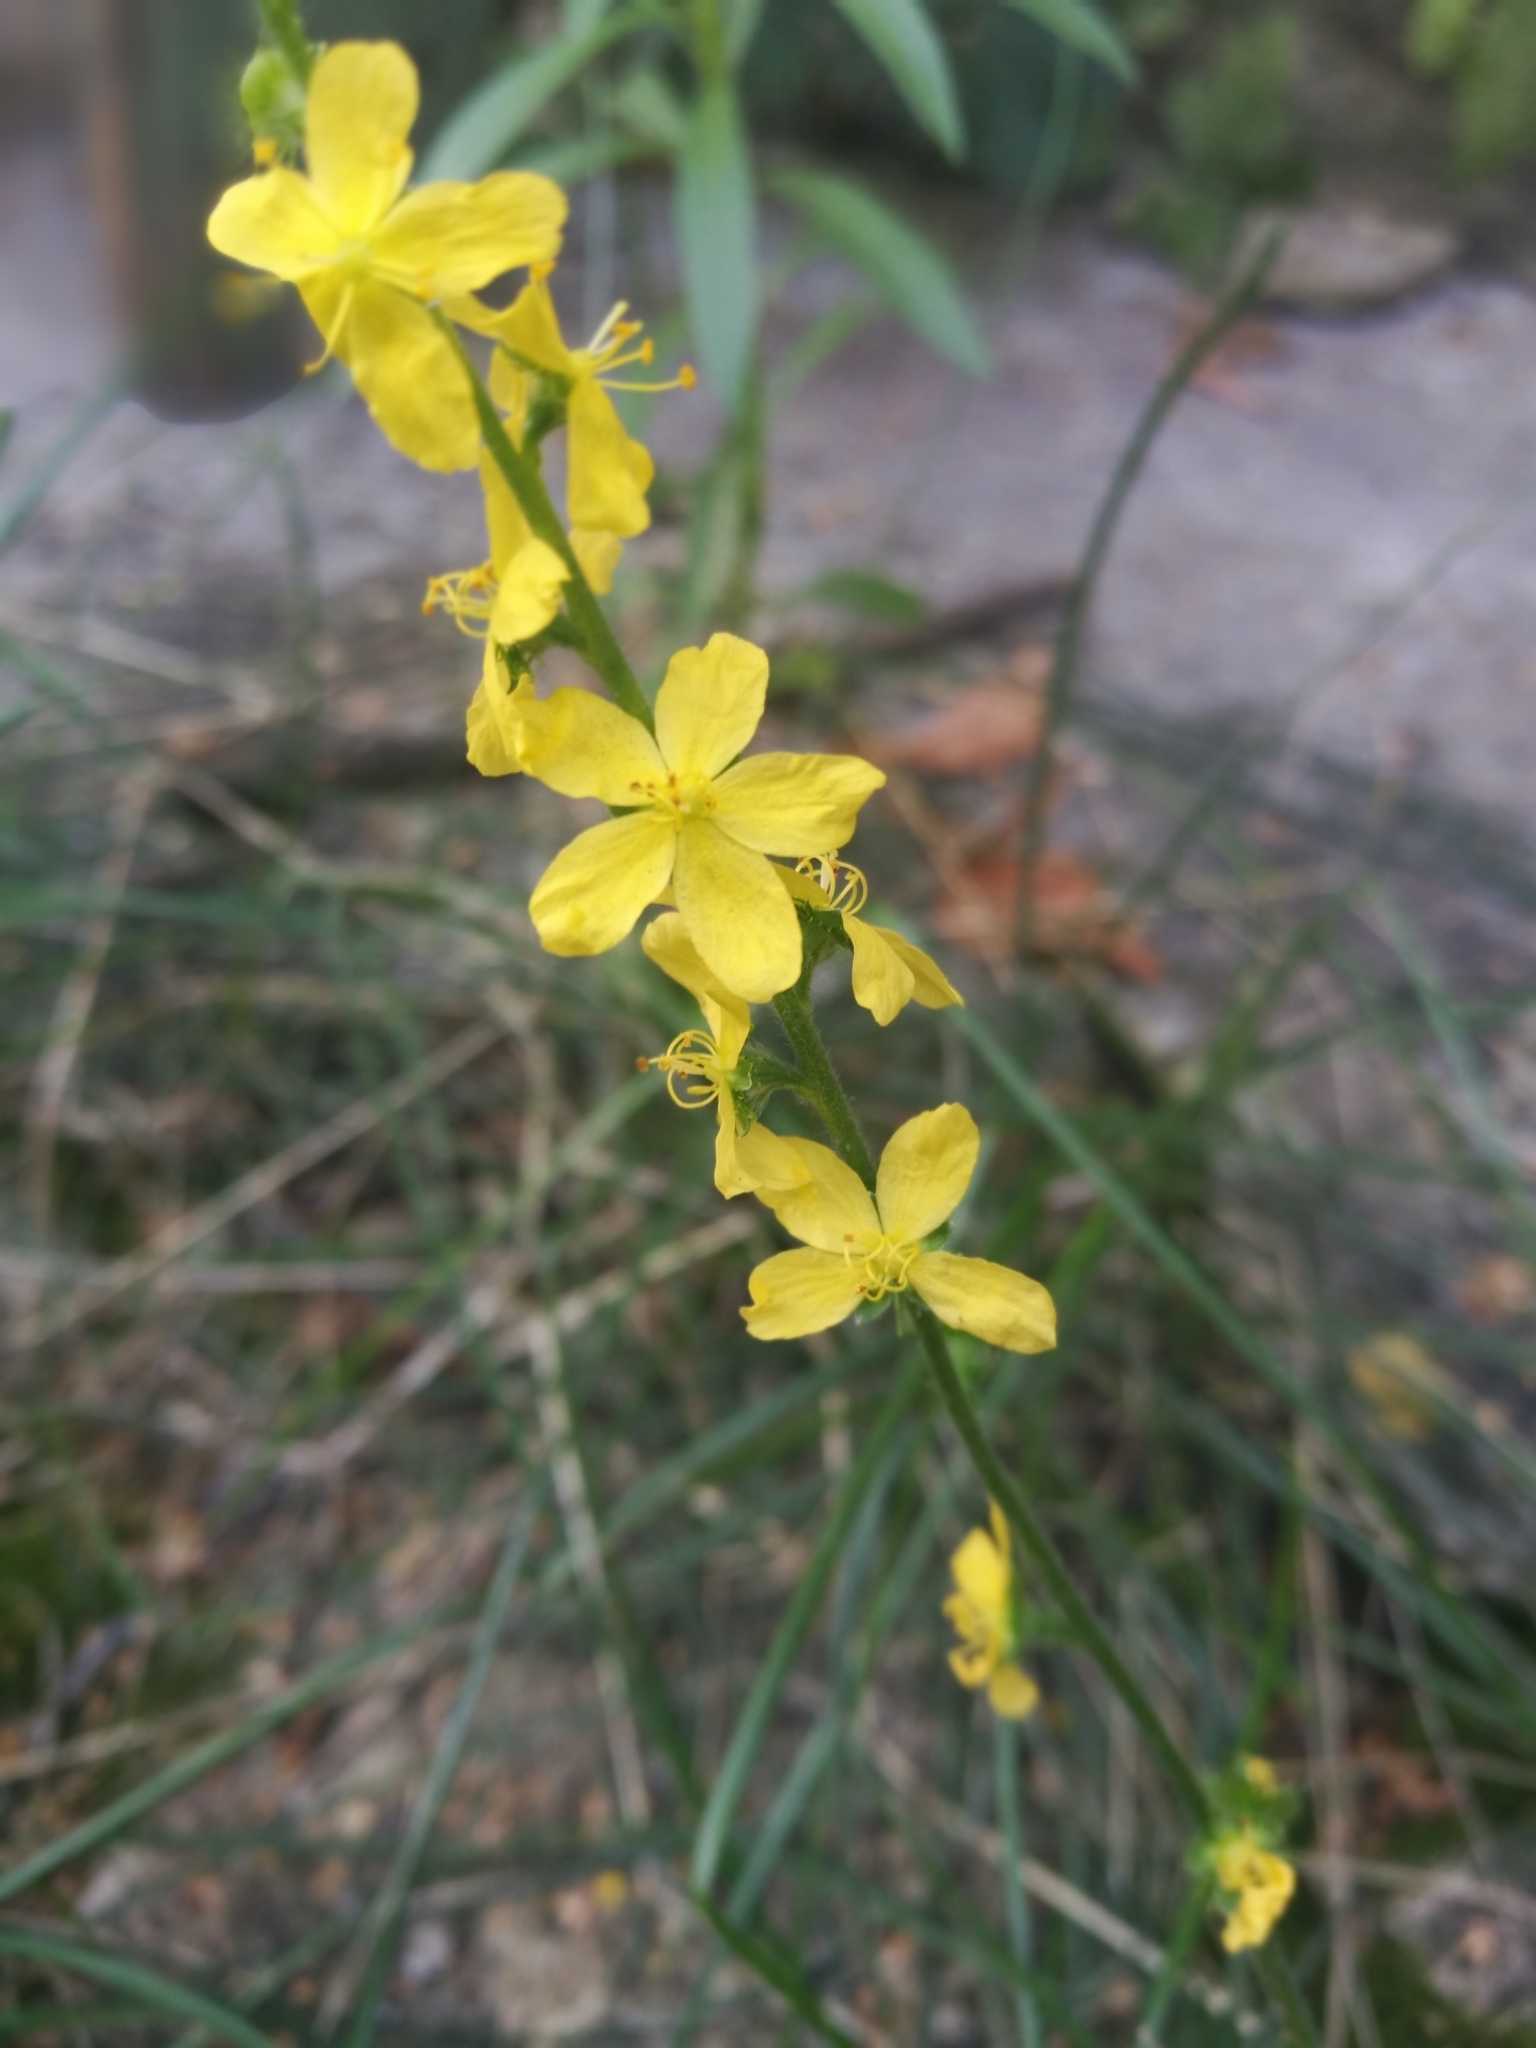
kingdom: Plantae
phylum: Tracheophyta
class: Magnoliopsida
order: Rosales
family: Rosaceae
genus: Agrimonia
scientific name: Agrimonia eupatoria
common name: Agrimony
